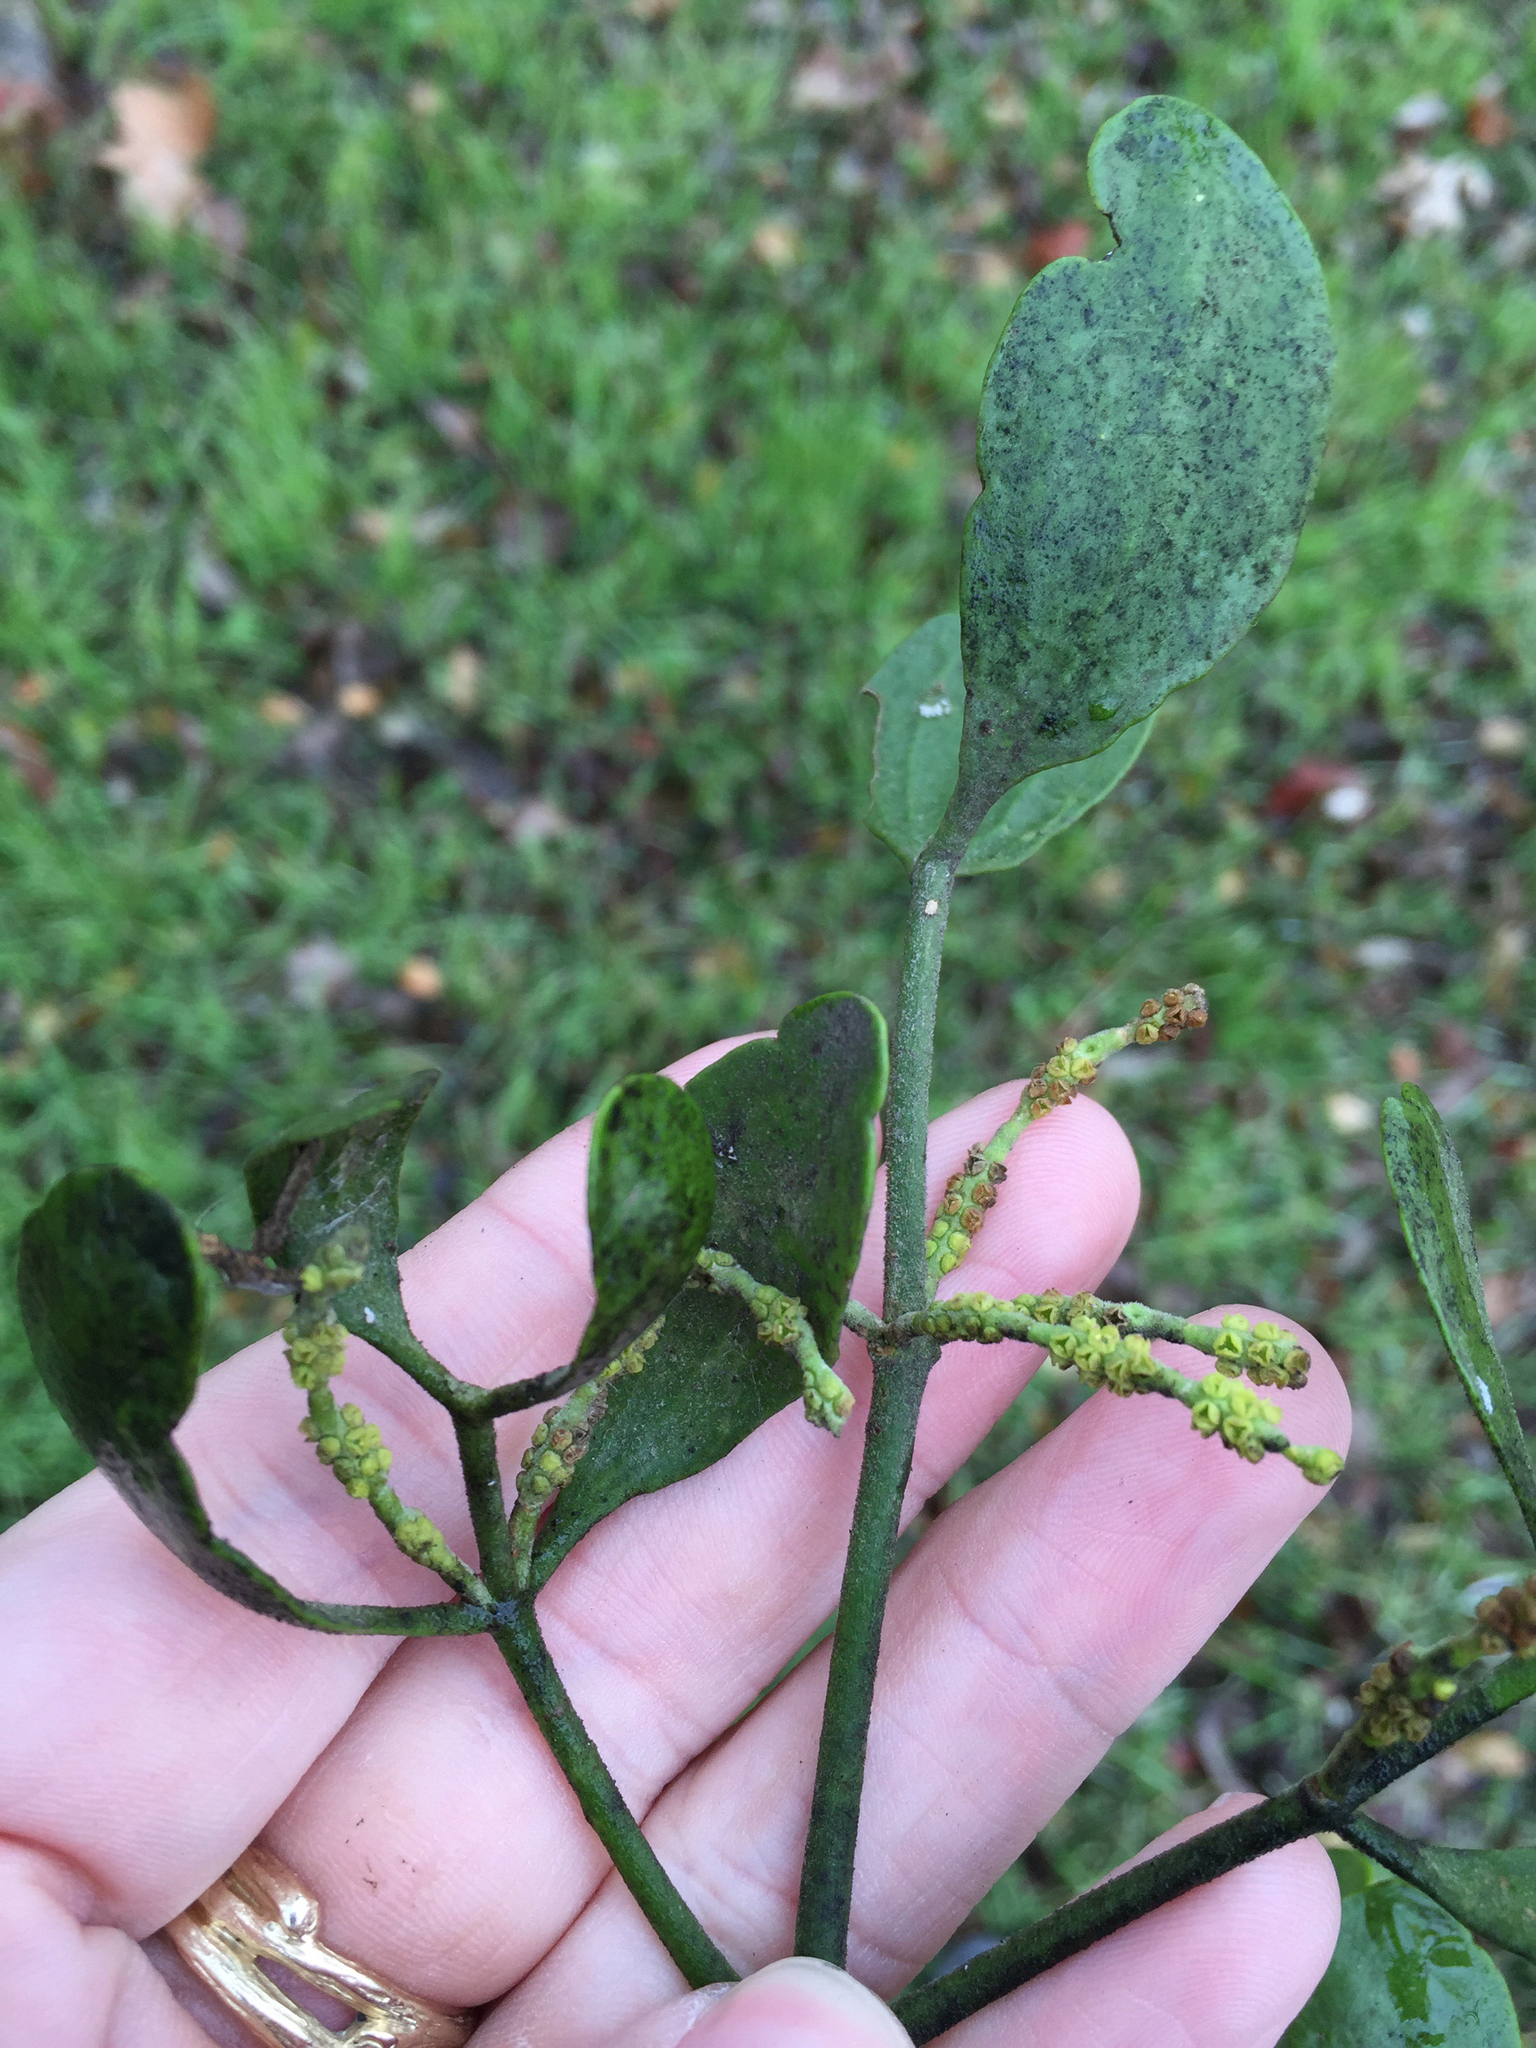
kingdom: Plantae
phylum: Tracheophyta
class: Magnoliopsida
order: Santalales
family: Viscaceae
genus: Phoradendron
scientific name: Phoradendron leucarpum
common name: Pacific mistletoe
